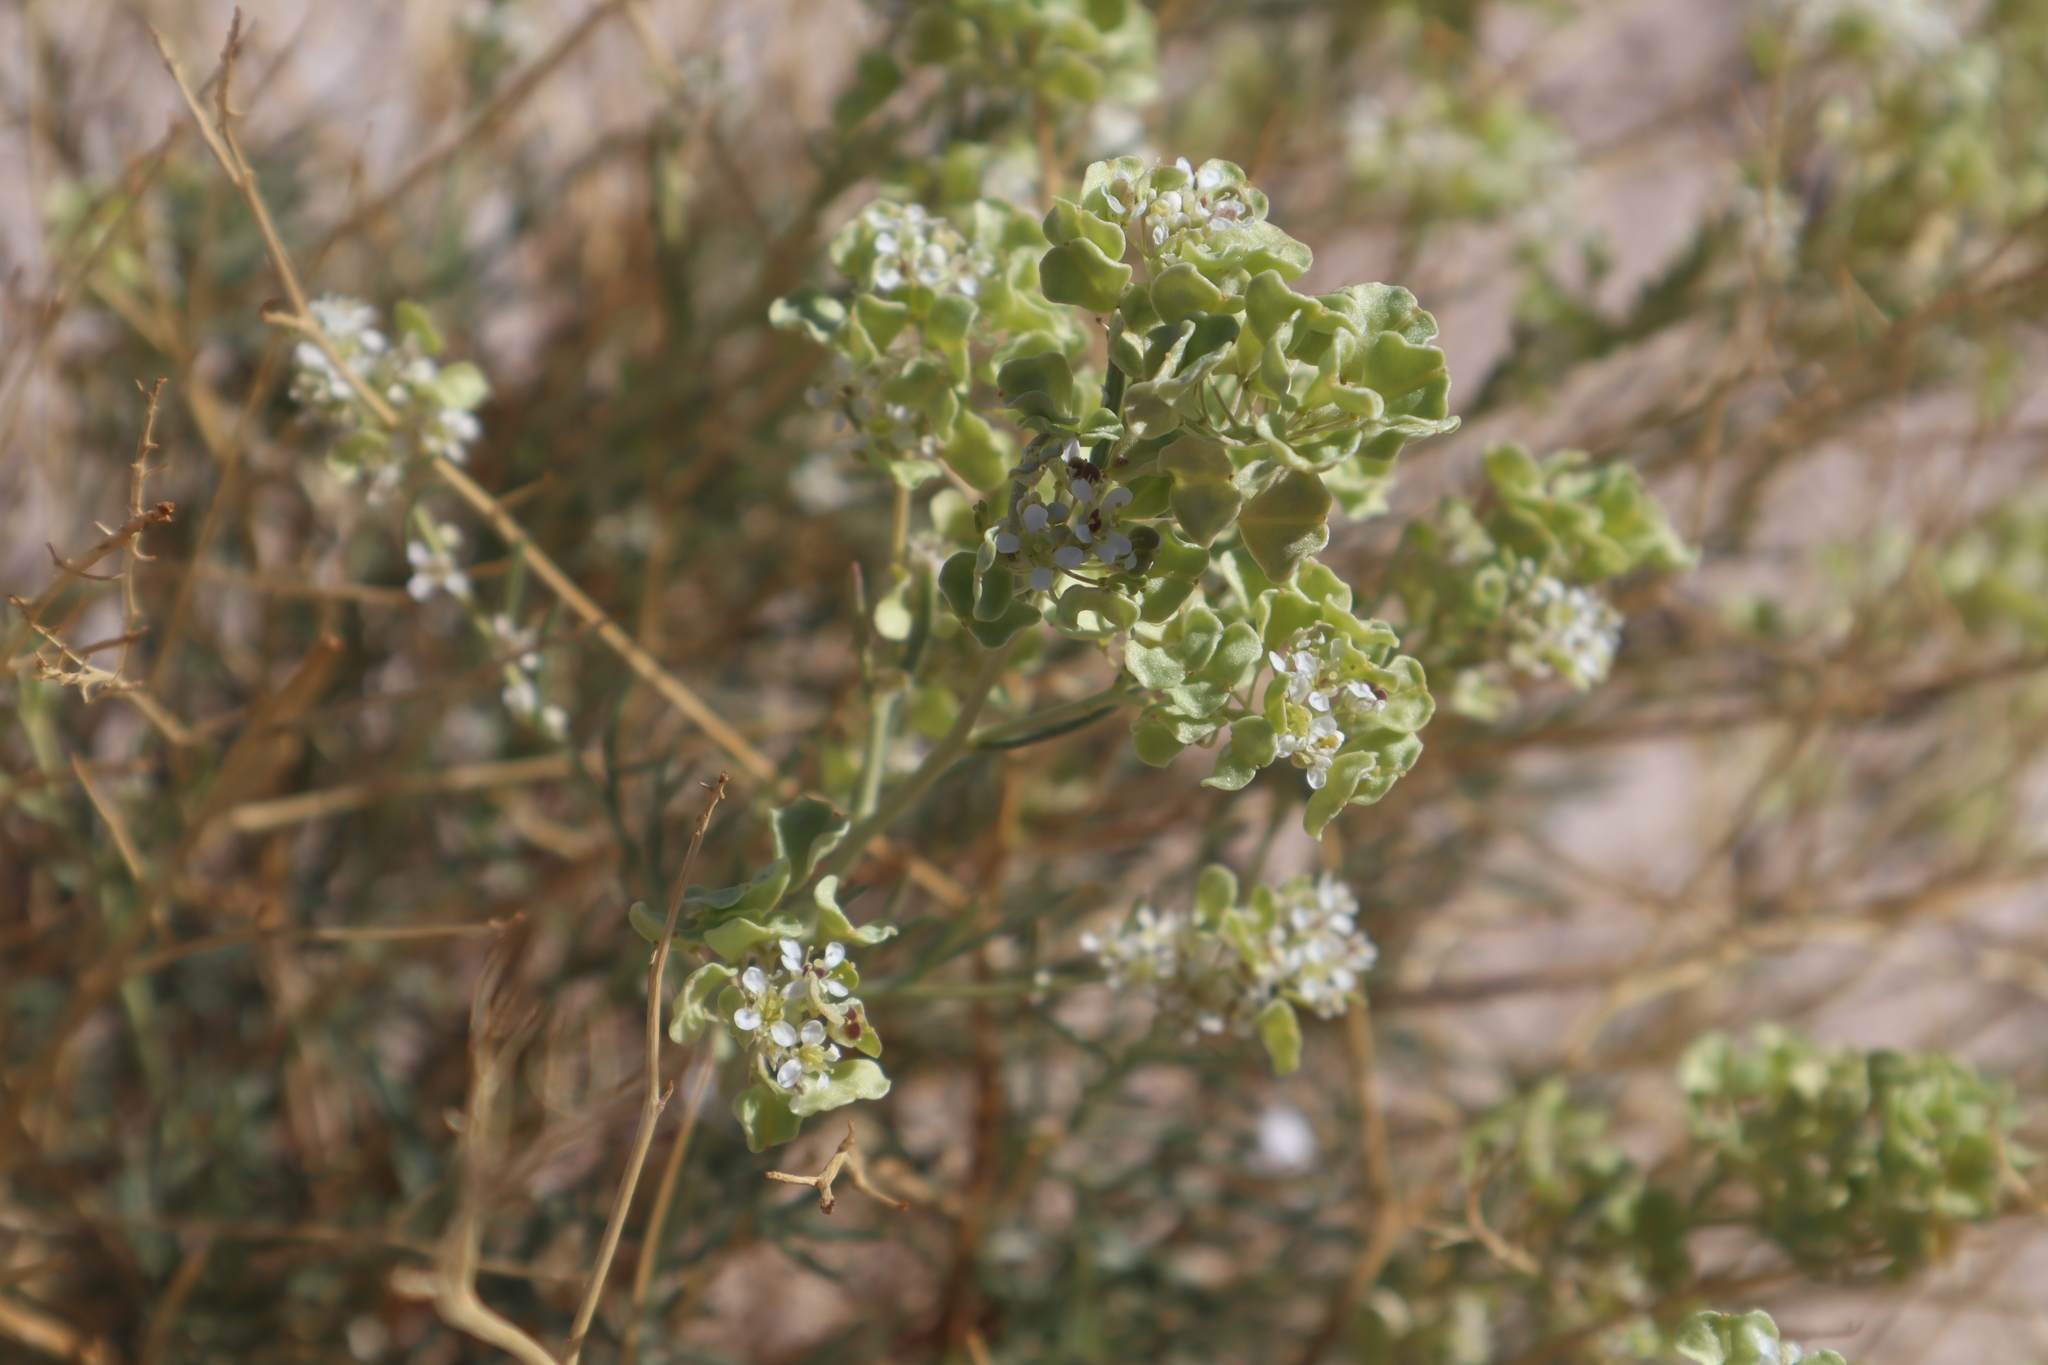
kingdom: Plantae
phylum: Tracheophyta
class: Magnoliopsida
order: Brassicales
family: Brassicaceae
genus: Lepidium
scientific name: Lepidium fremontii
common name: Fremont's pepperwort
